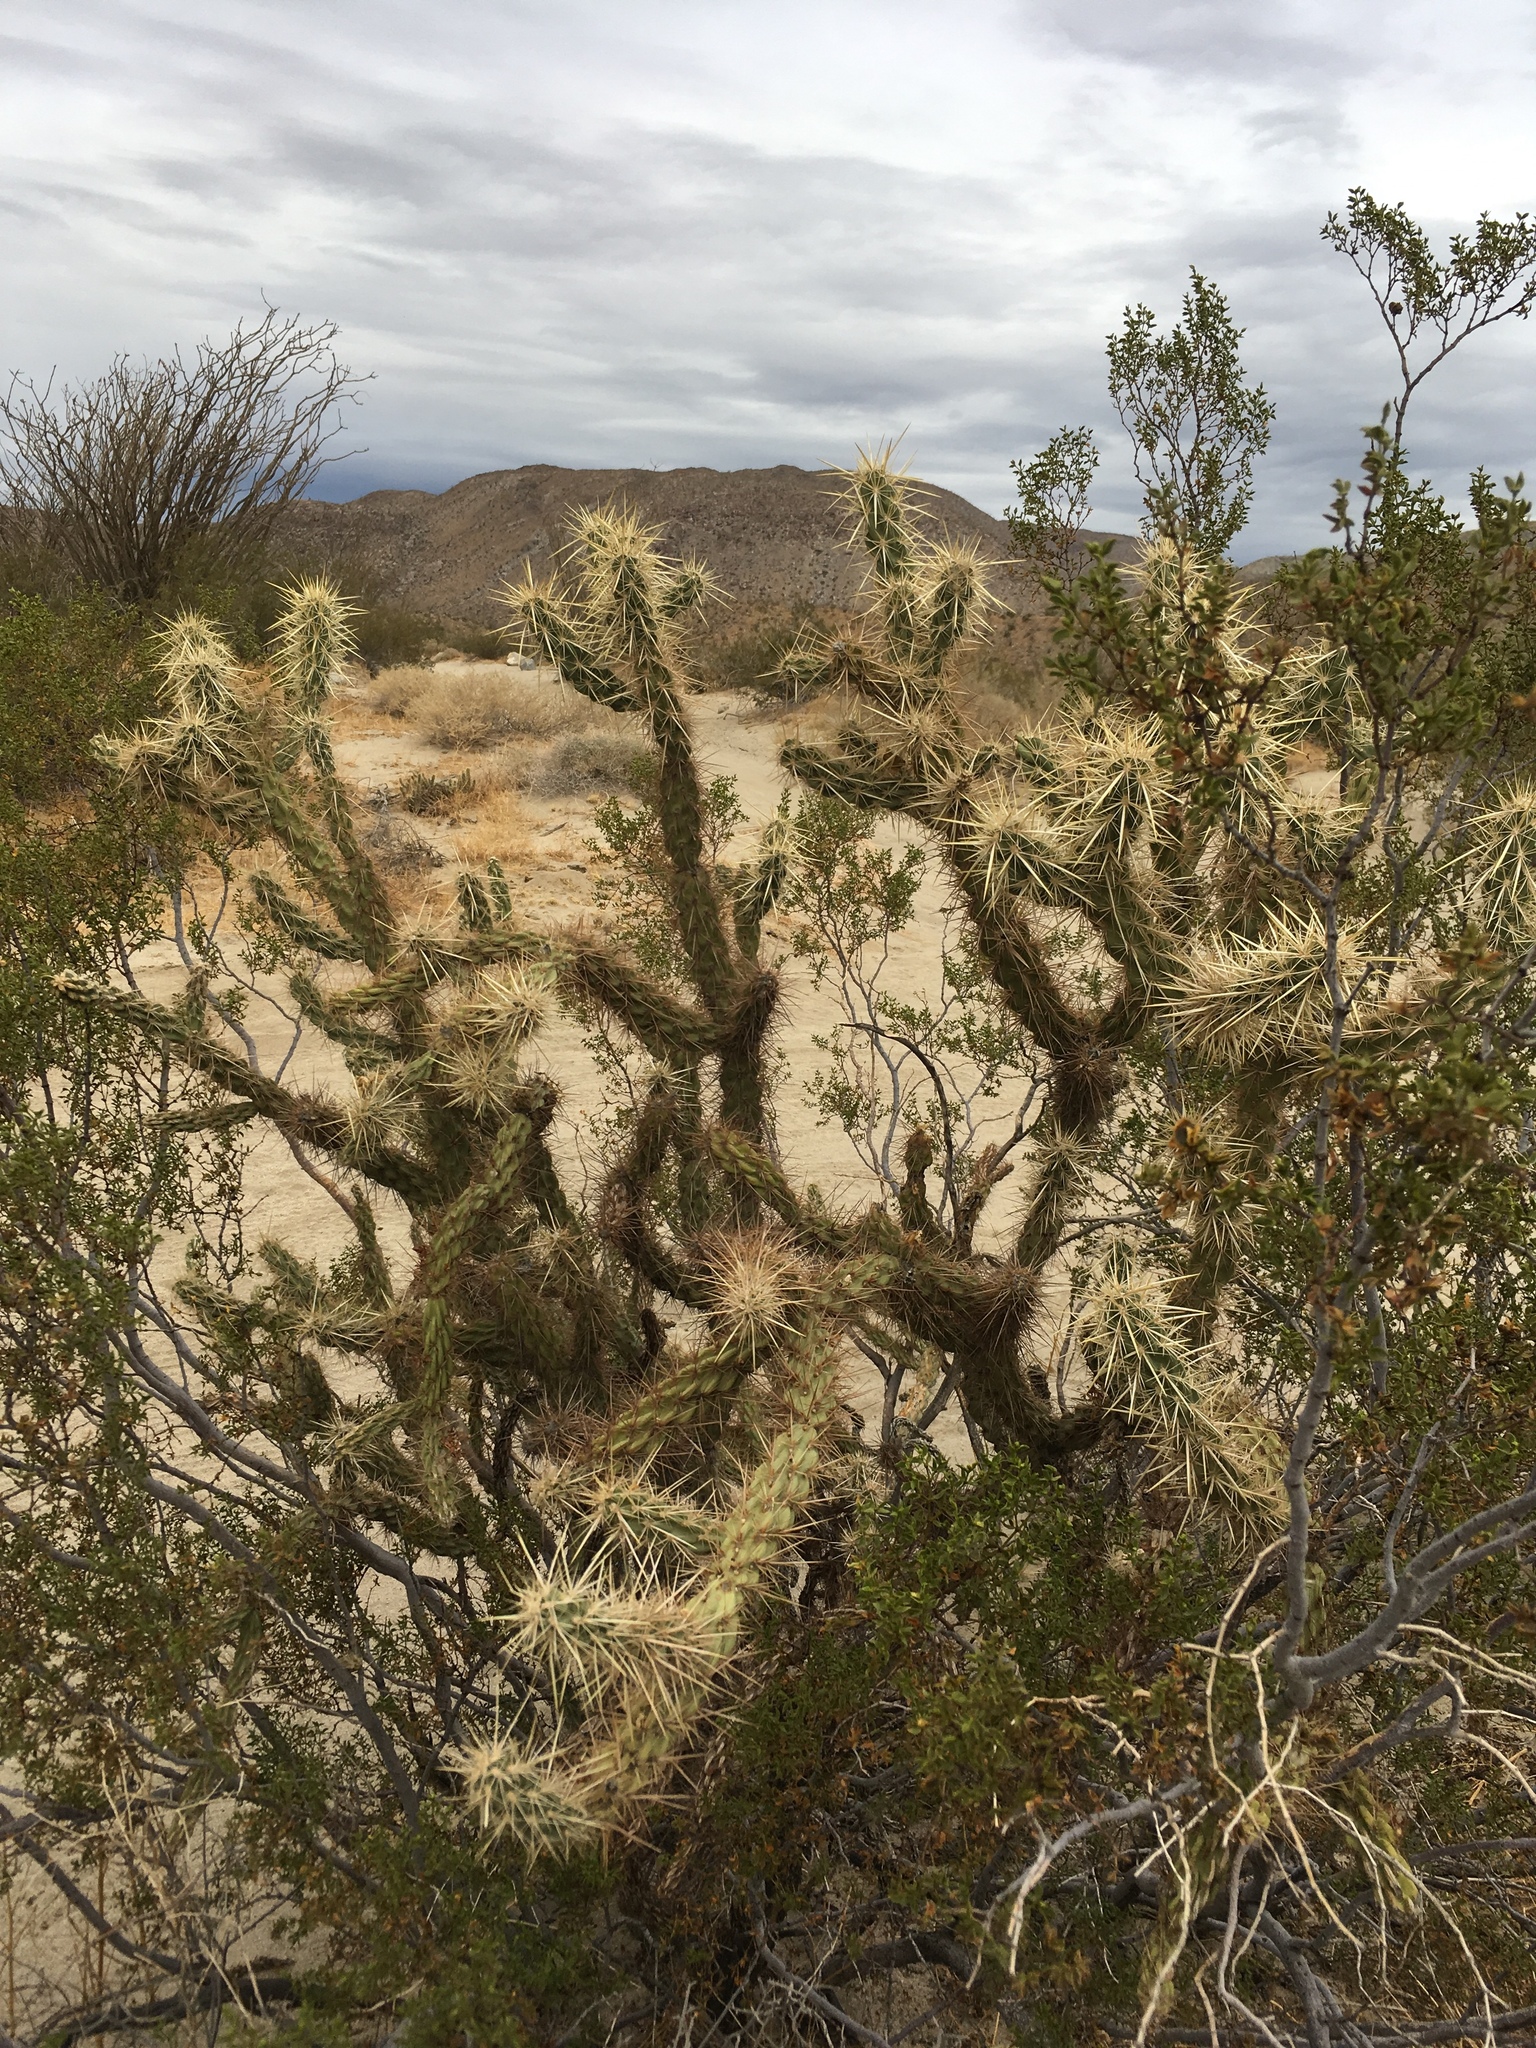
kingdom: Plantae
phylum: Tracheophyta
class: Magnoliopsida
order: Caryophyllales
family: Cactaceae
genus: Cylindropuntia
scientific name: Cylindropuntia ganderi
